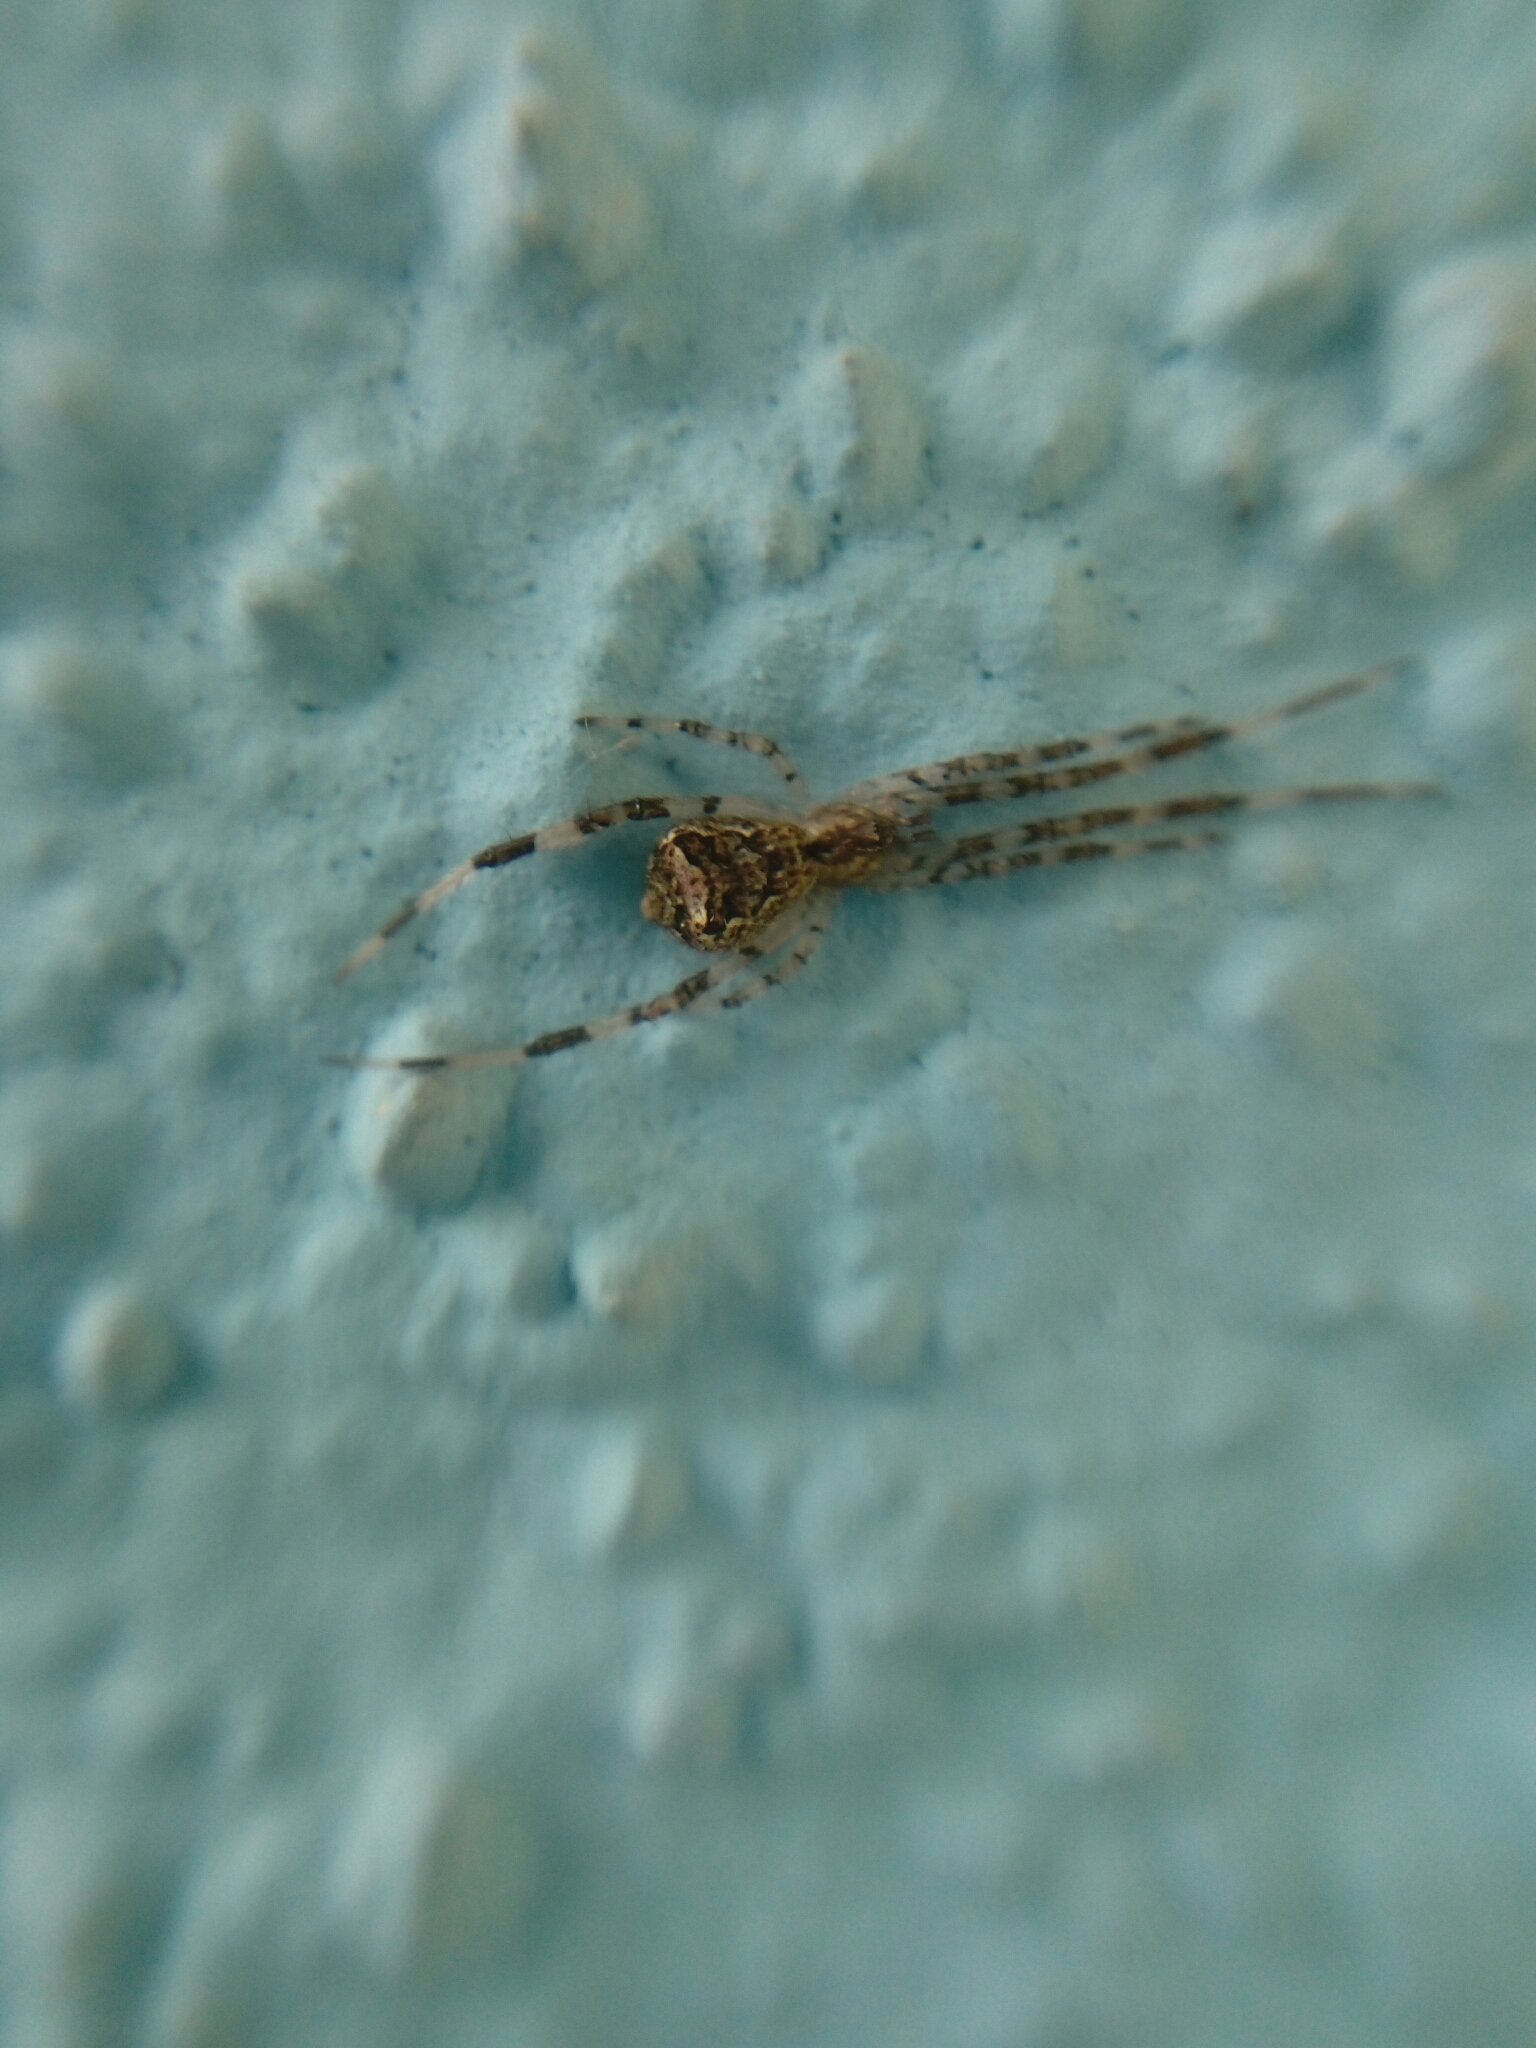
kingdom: Animalia
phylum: Arthropoda
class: Arachnida
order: Araneae
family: Theridiidae
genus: Episinus
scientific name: Episinus maculipes
